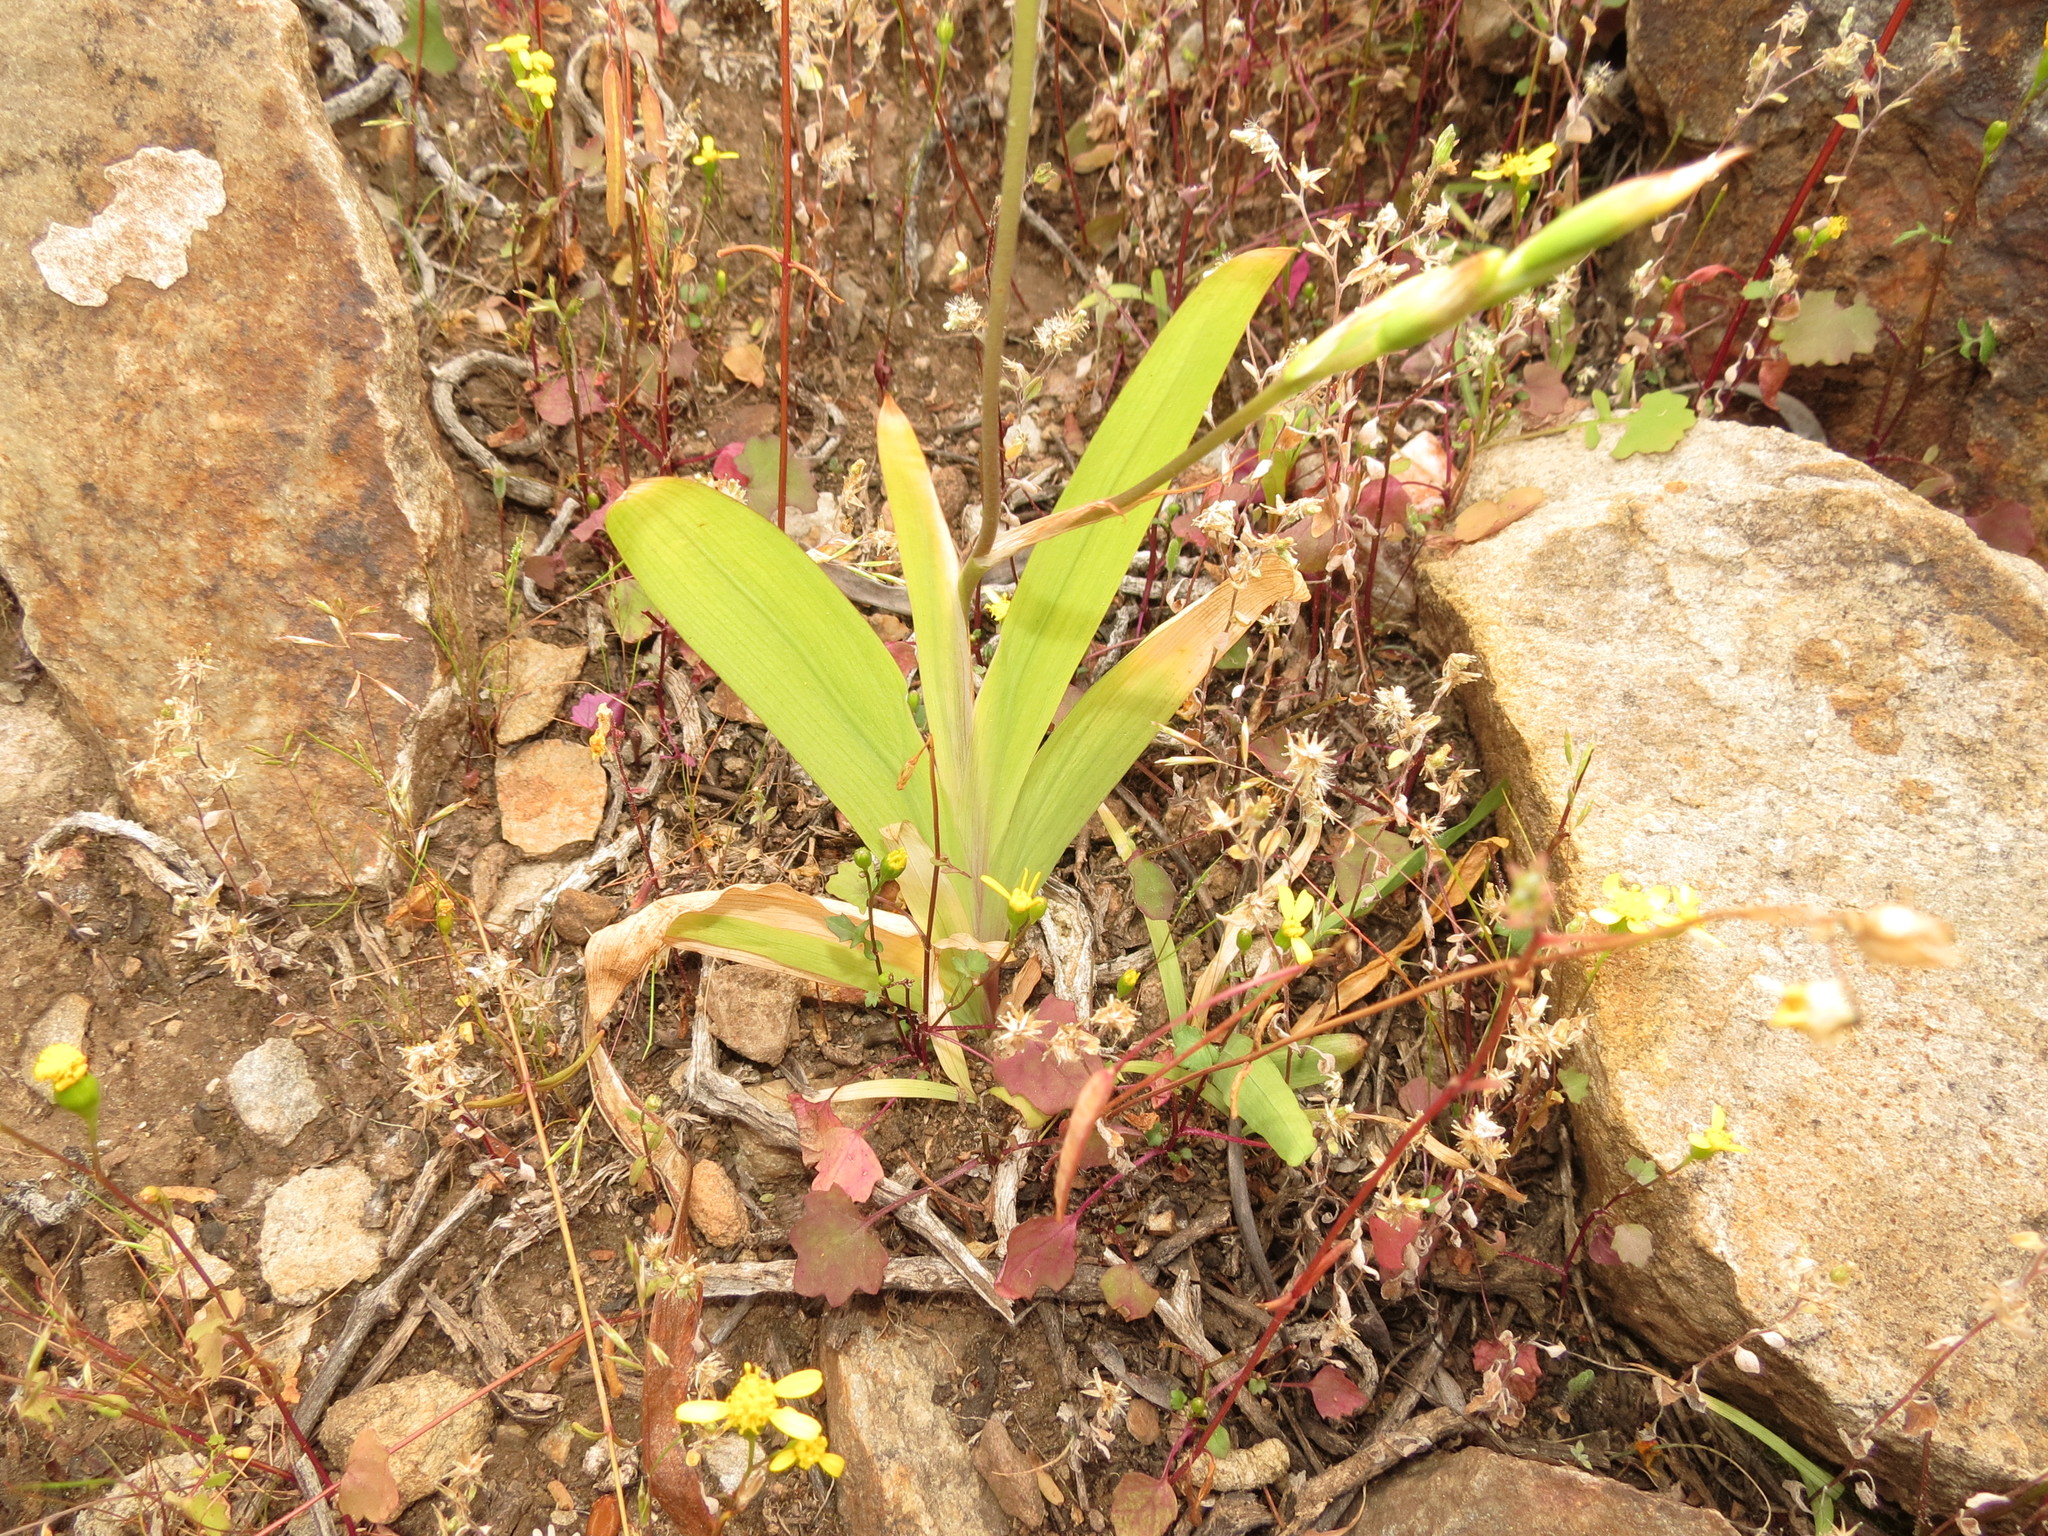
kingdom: Plantae
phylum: Tracheophyta
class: Liliopsida
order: Asparagales
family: Iridaceae
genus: Tritonia
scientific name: Tritonia pallida
